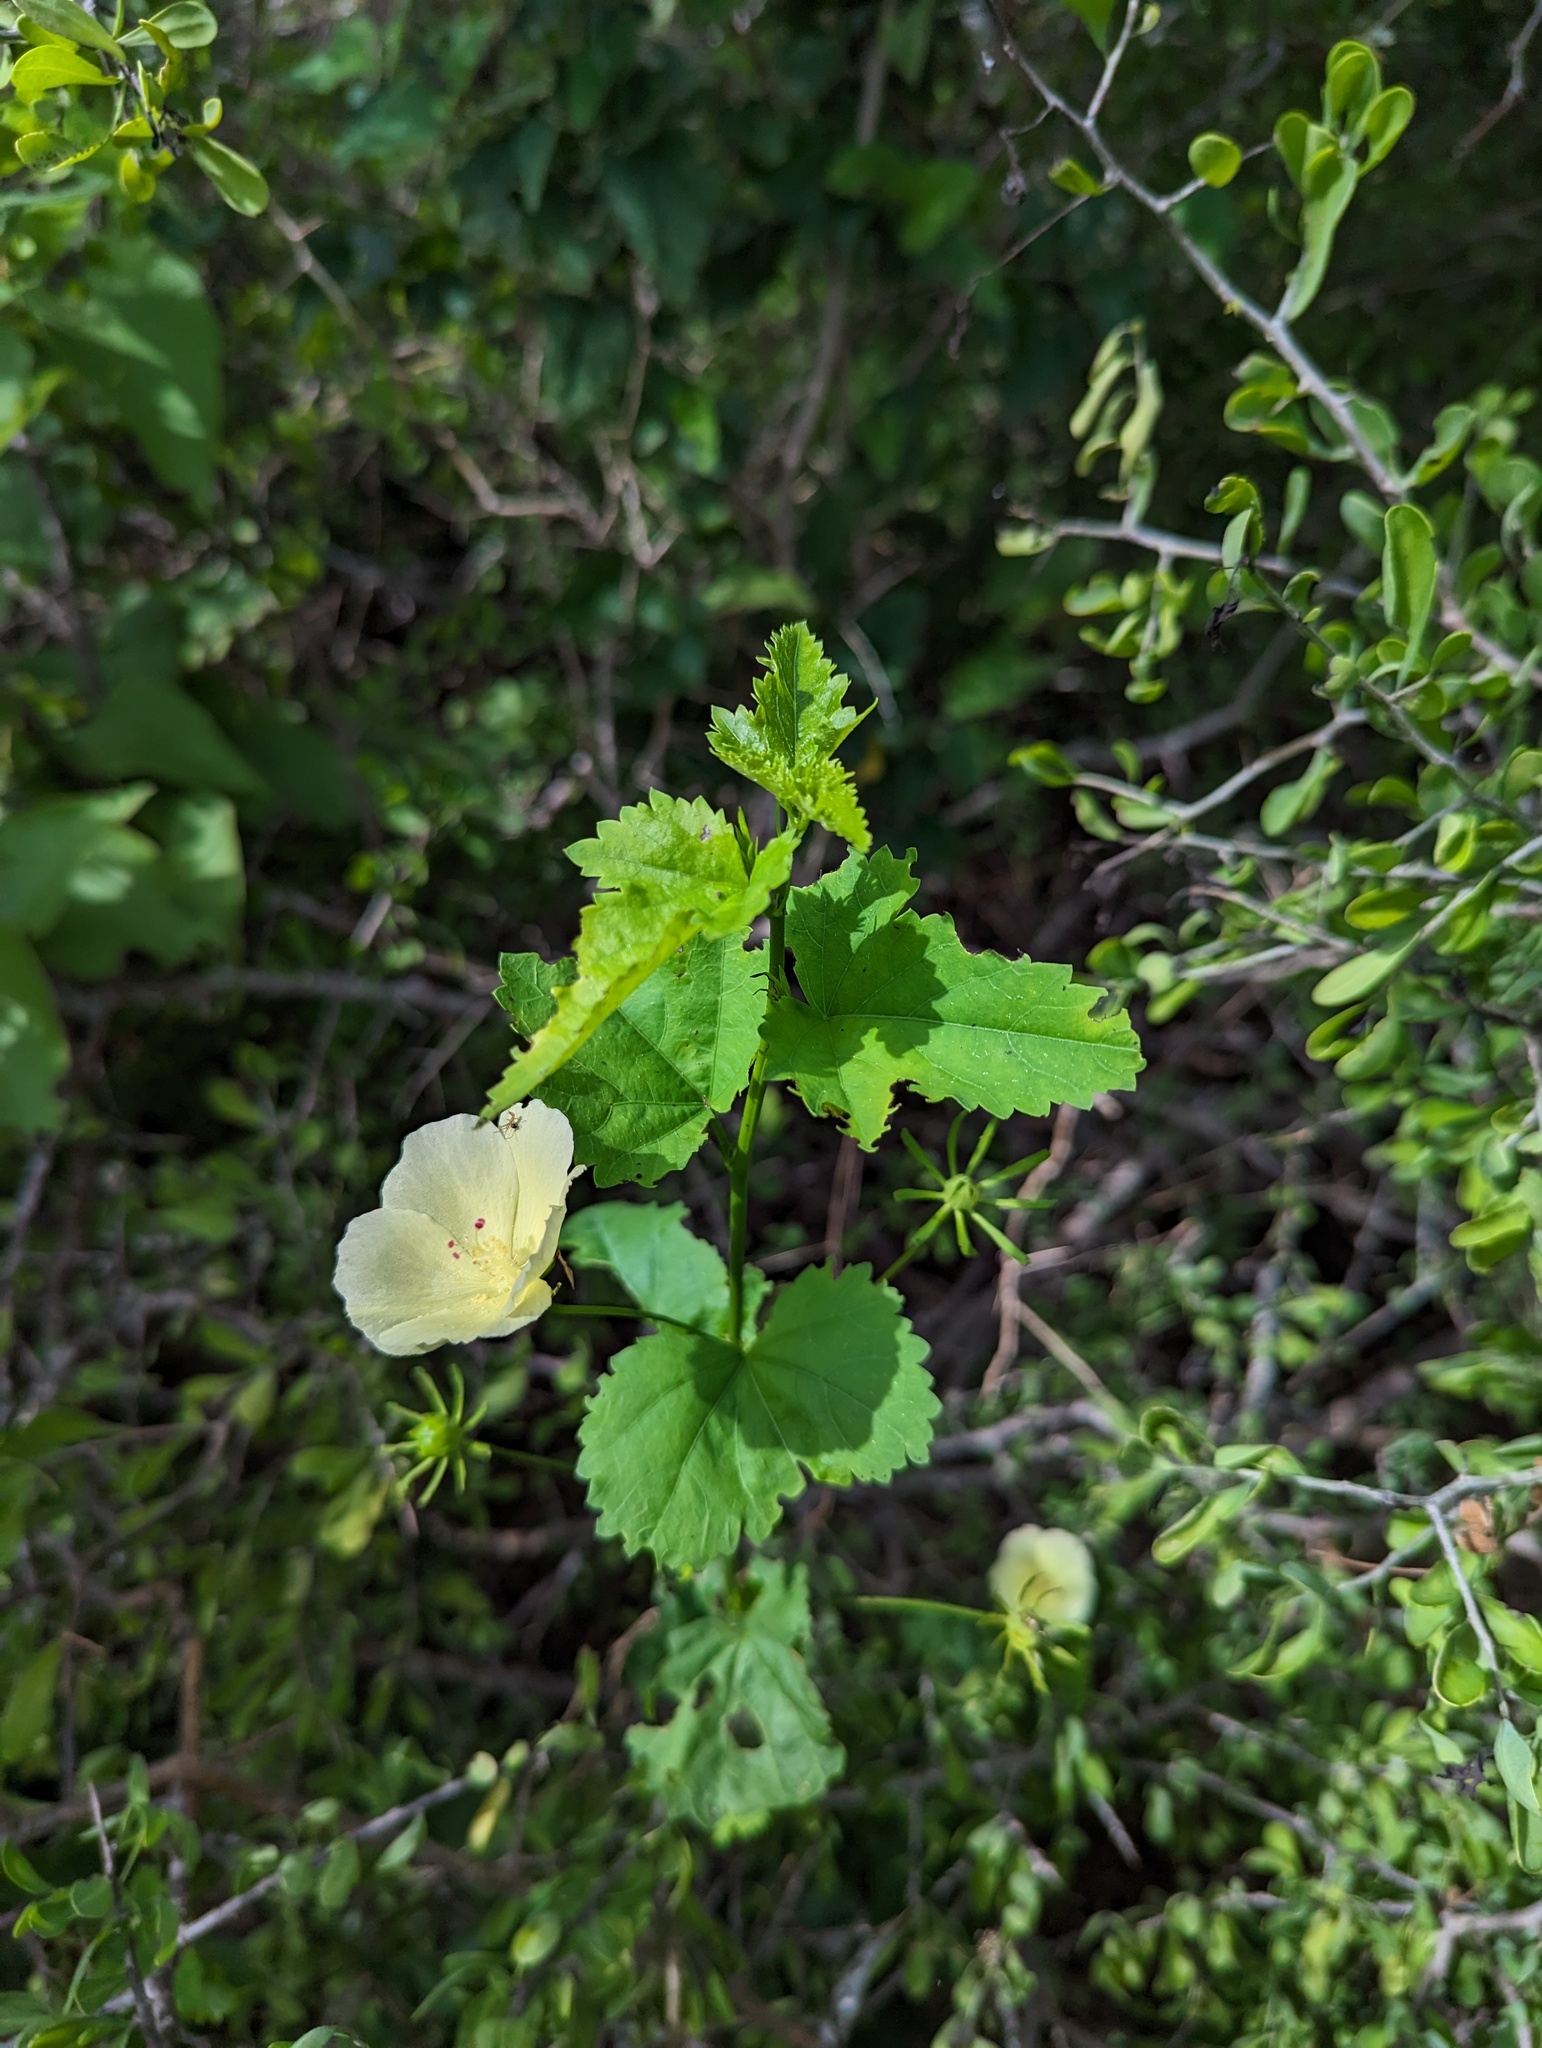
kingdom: Plantae
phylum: Tracheophyta
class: Magnoliopsida
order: Malvales
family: Malvaceae
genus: Hibiscus
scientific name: Hibiscus ribifolius
